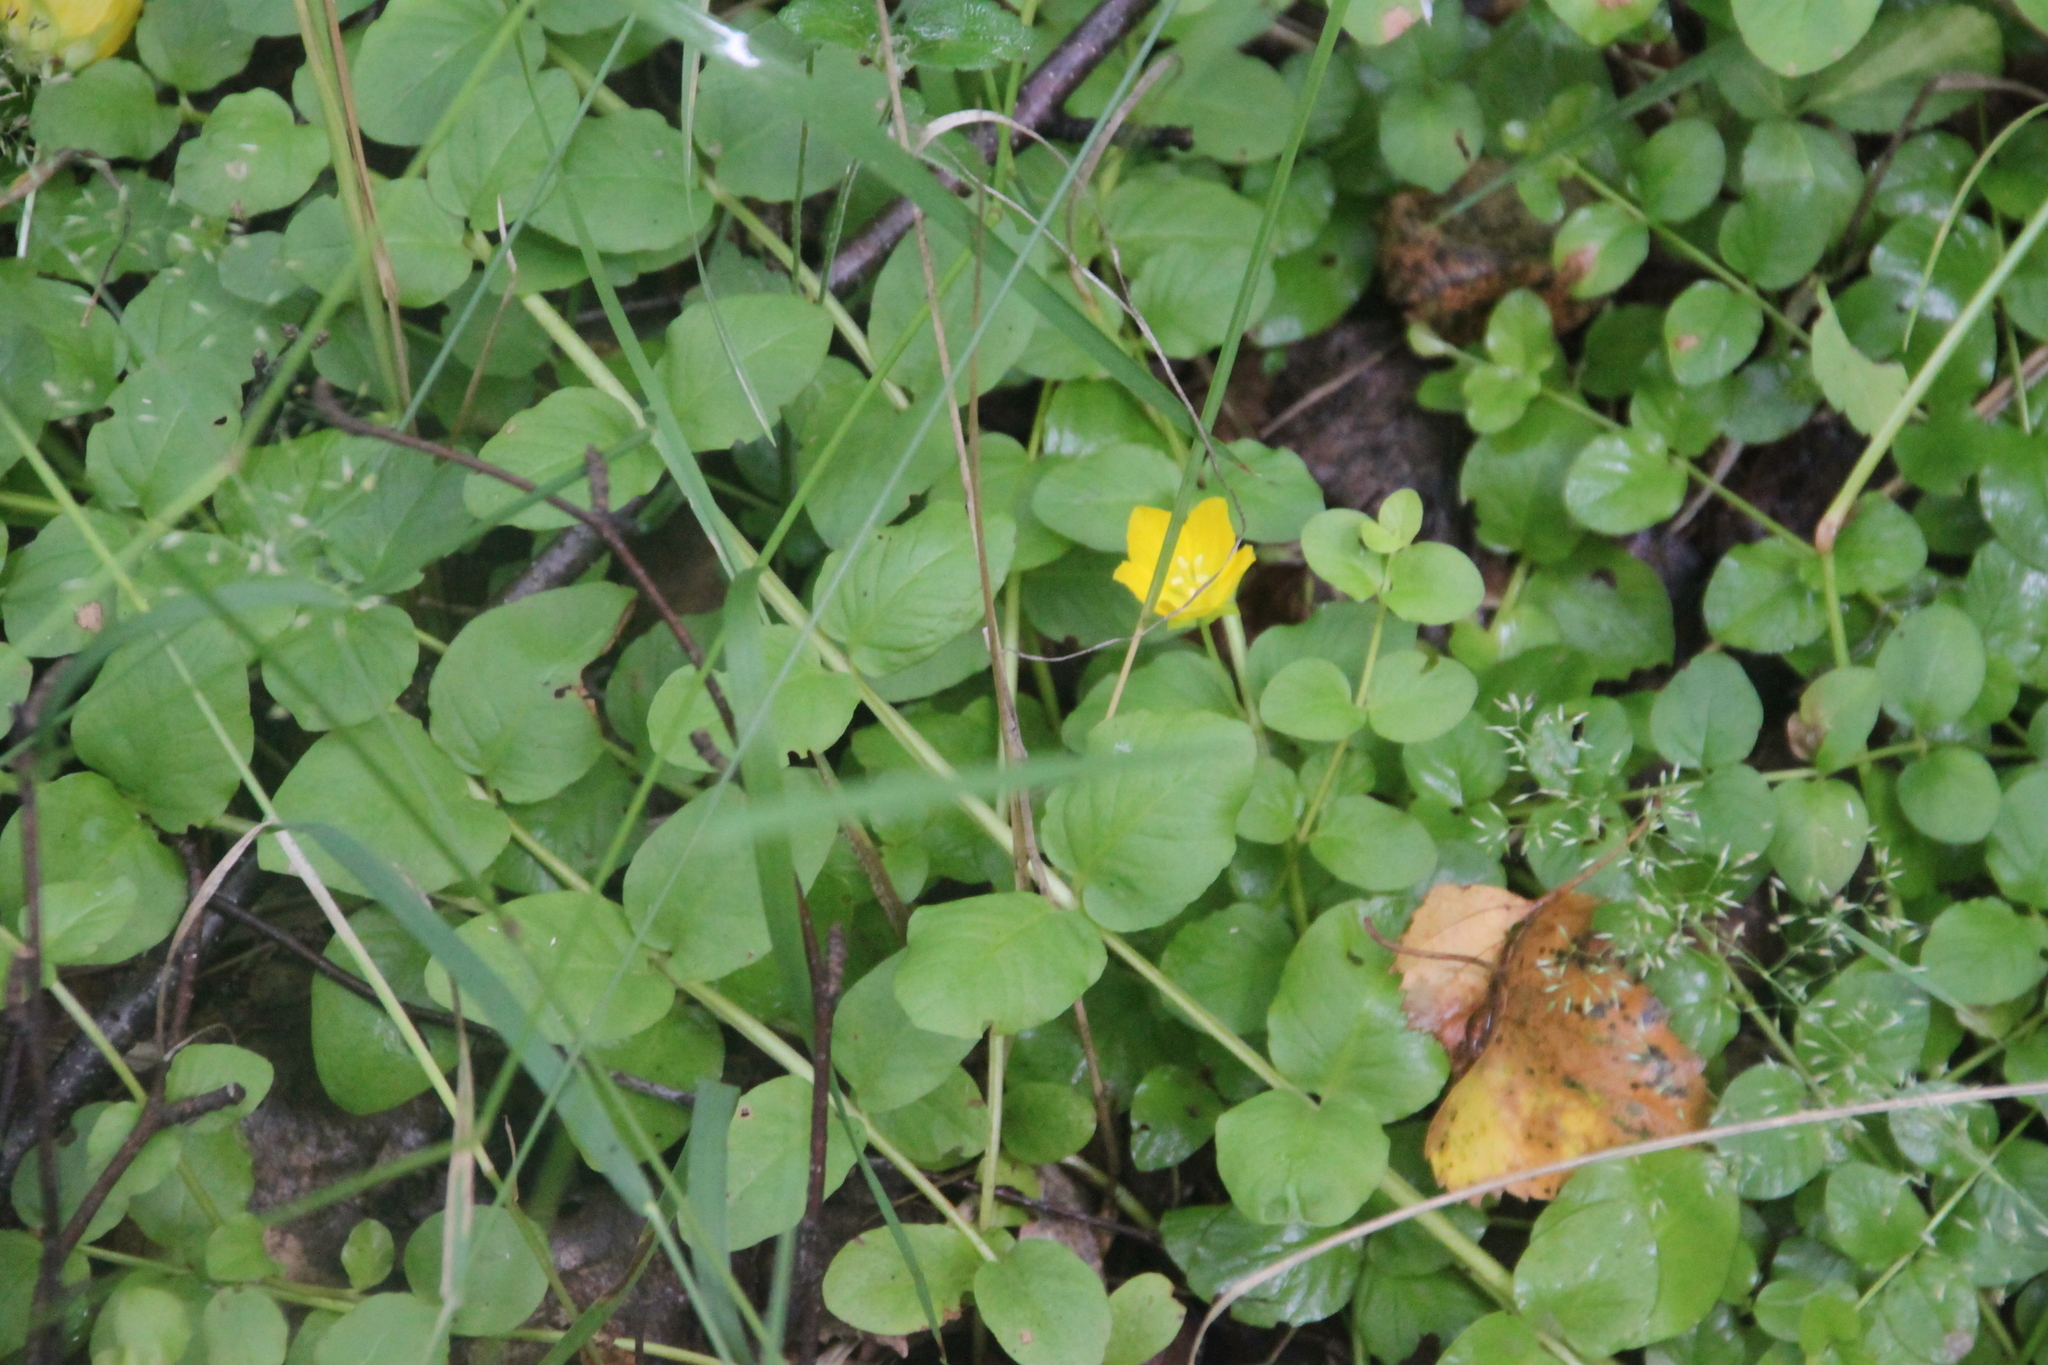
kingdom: Plantae
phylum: Tracheophyta
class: Magnoliopsida
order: Ericales
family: Primulaceae
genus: Lysimachia
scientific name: Lysimachia nummularia
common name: Moneywort
